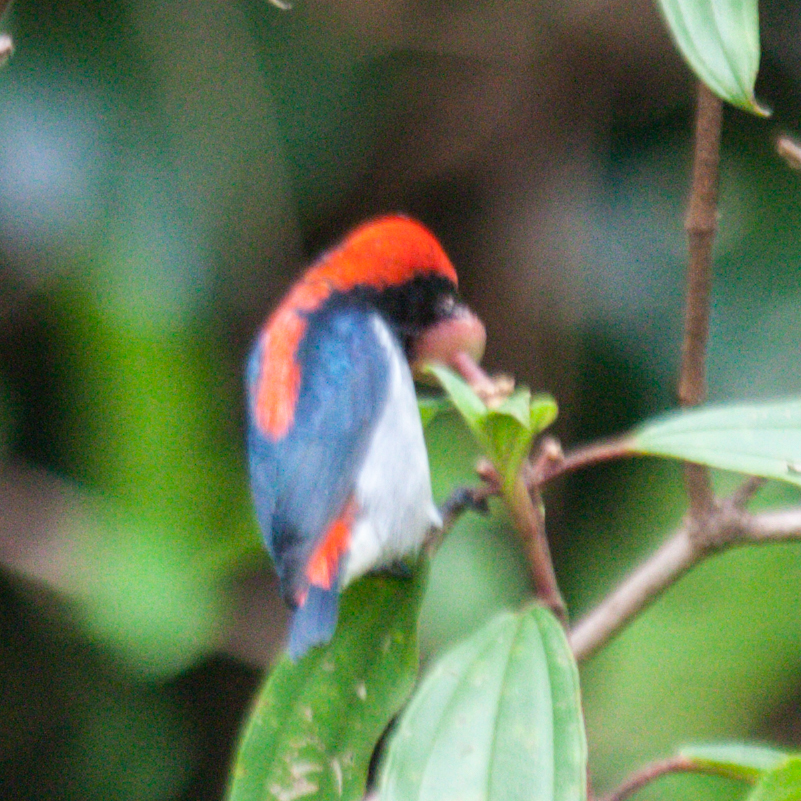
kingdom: Animalia
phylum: Chordata
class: Aves
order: Passeriformes
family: Dicaeidae
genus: Dicaeum
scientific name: Dicaeum cruentatum
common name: Scarlet-backed flowerpecker
